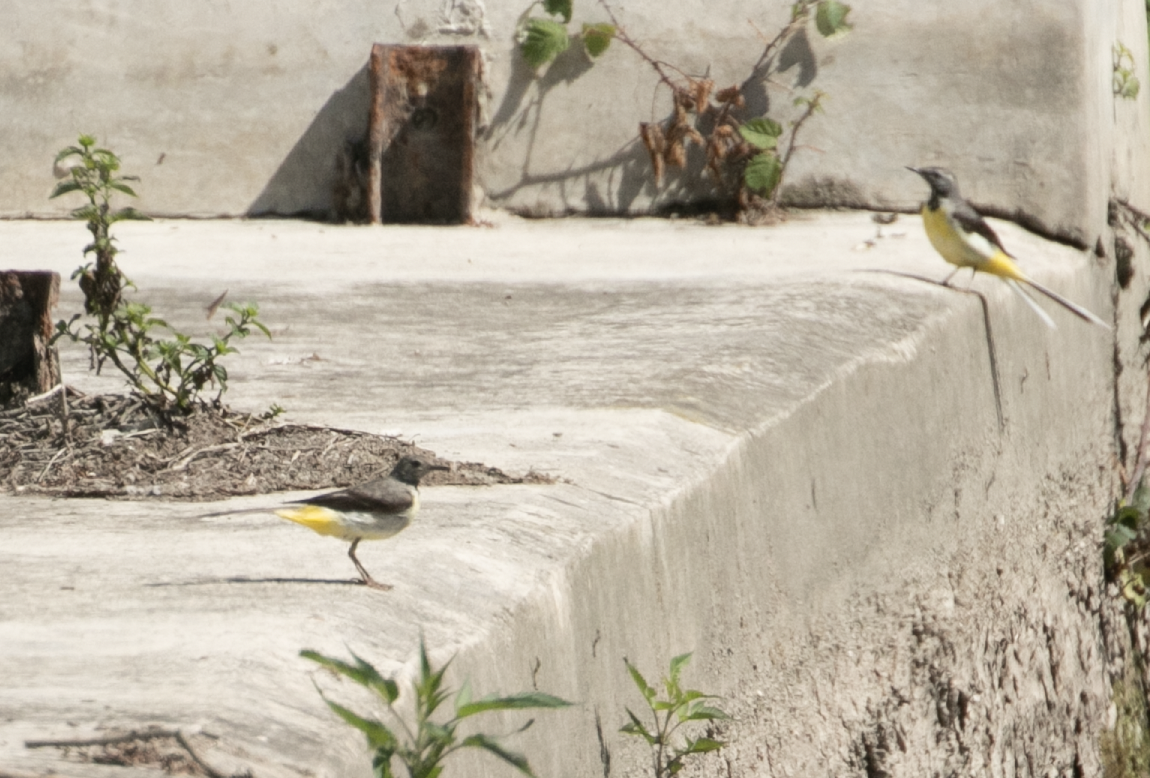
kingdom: Animalia
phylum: Chordata
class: Aves
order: Passeriformes
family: Motacillidae
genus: Motacilla
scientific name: Motacilla cinerea
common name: Grey wagtail
